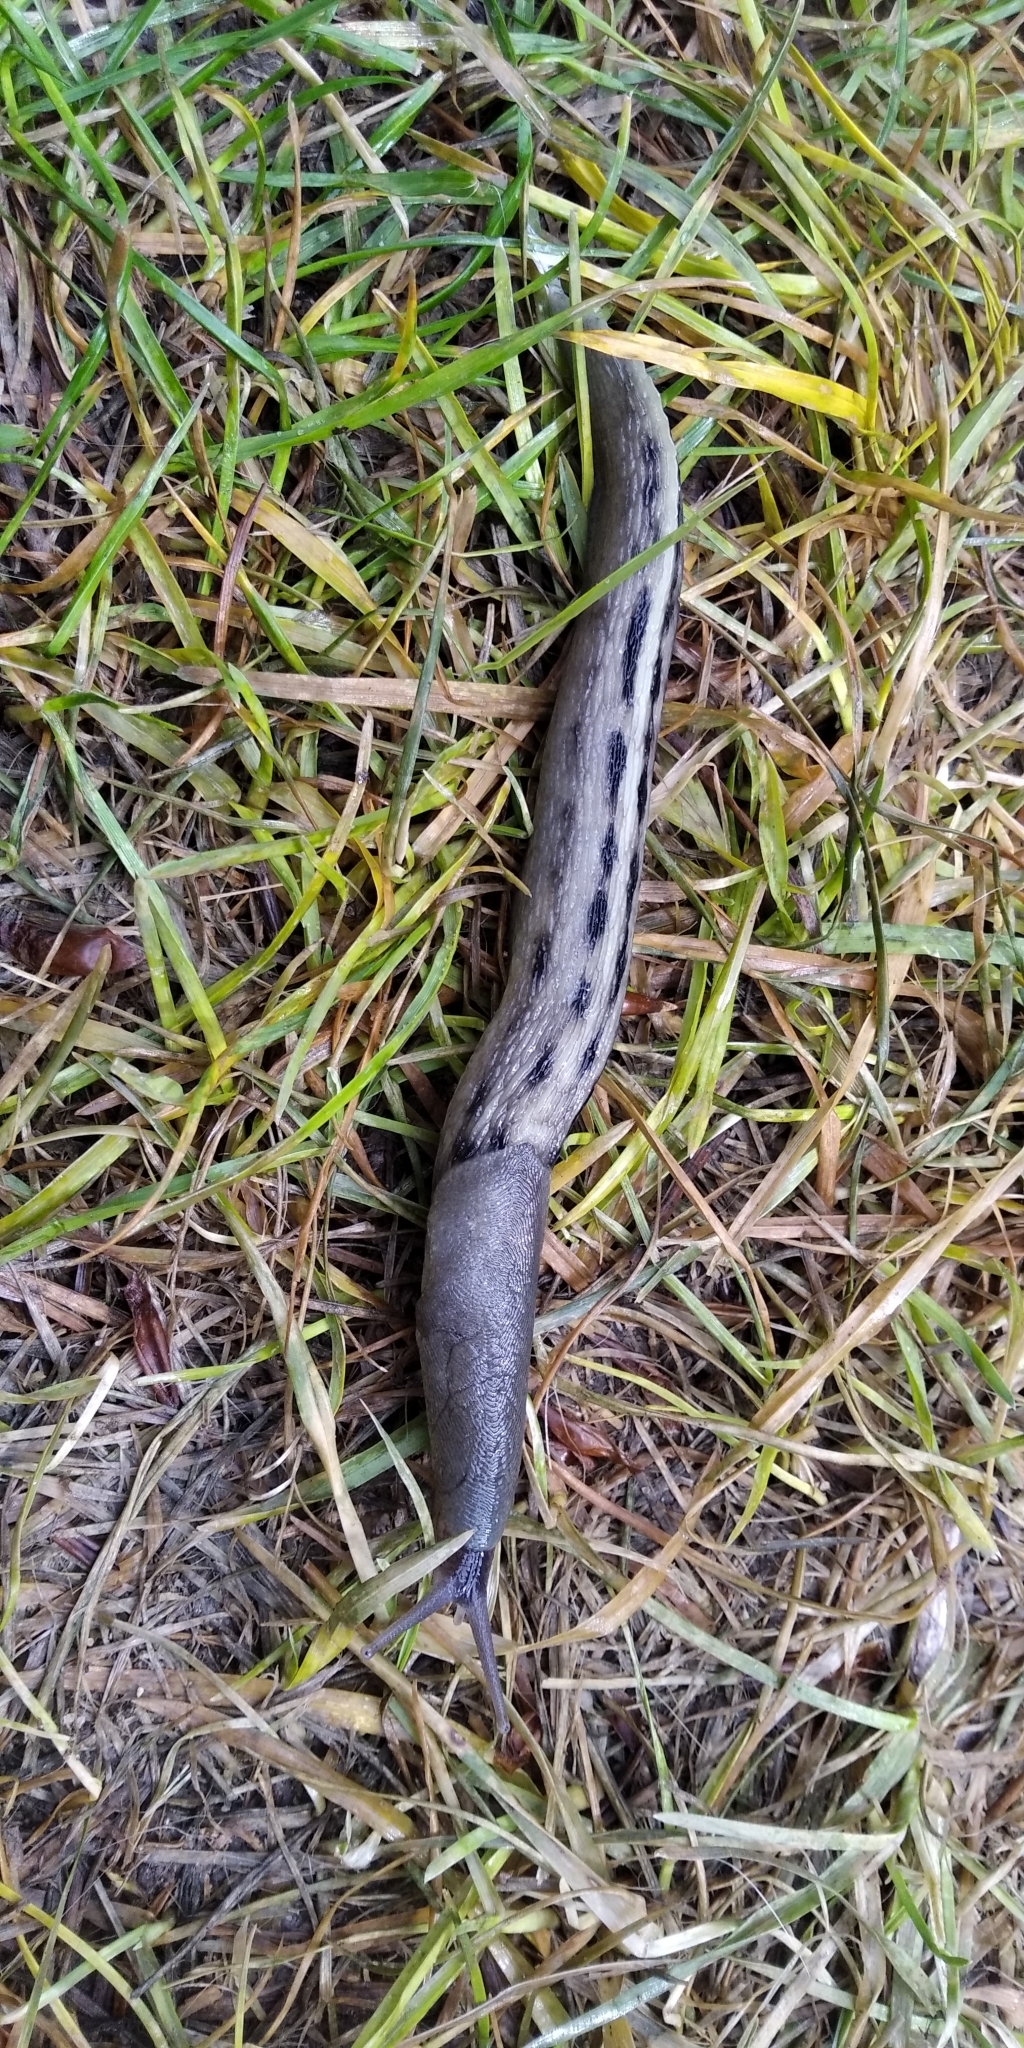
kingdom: Animalia
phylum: Mollusca
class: Gastropoda
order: Stylommatophora
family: Limacidae
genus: Limax
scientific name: Limax cinereoniger
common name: Ash-black slug
